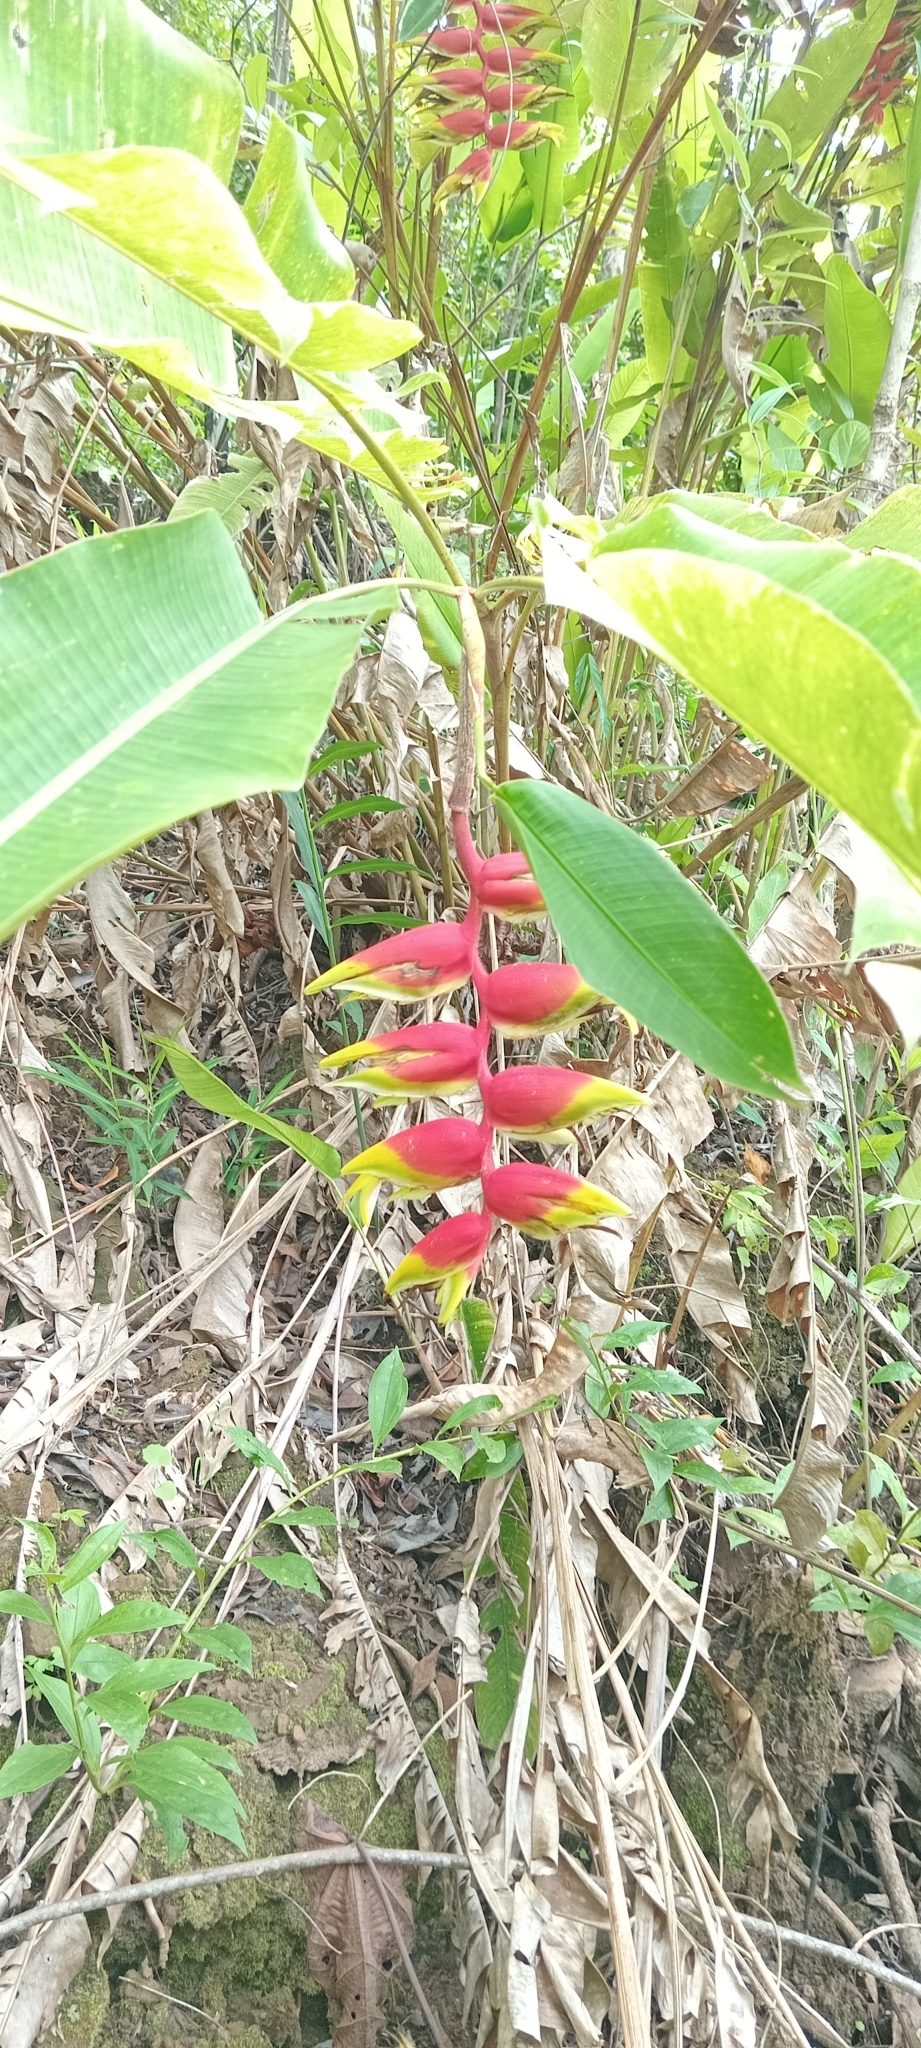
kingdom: Plantae
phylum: Tracheophyta
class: Liliopsida
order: Zingiberales
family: Heliconiaceae
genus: Heliconia
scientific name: Heliconia rostrata
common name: False bird of paradise
